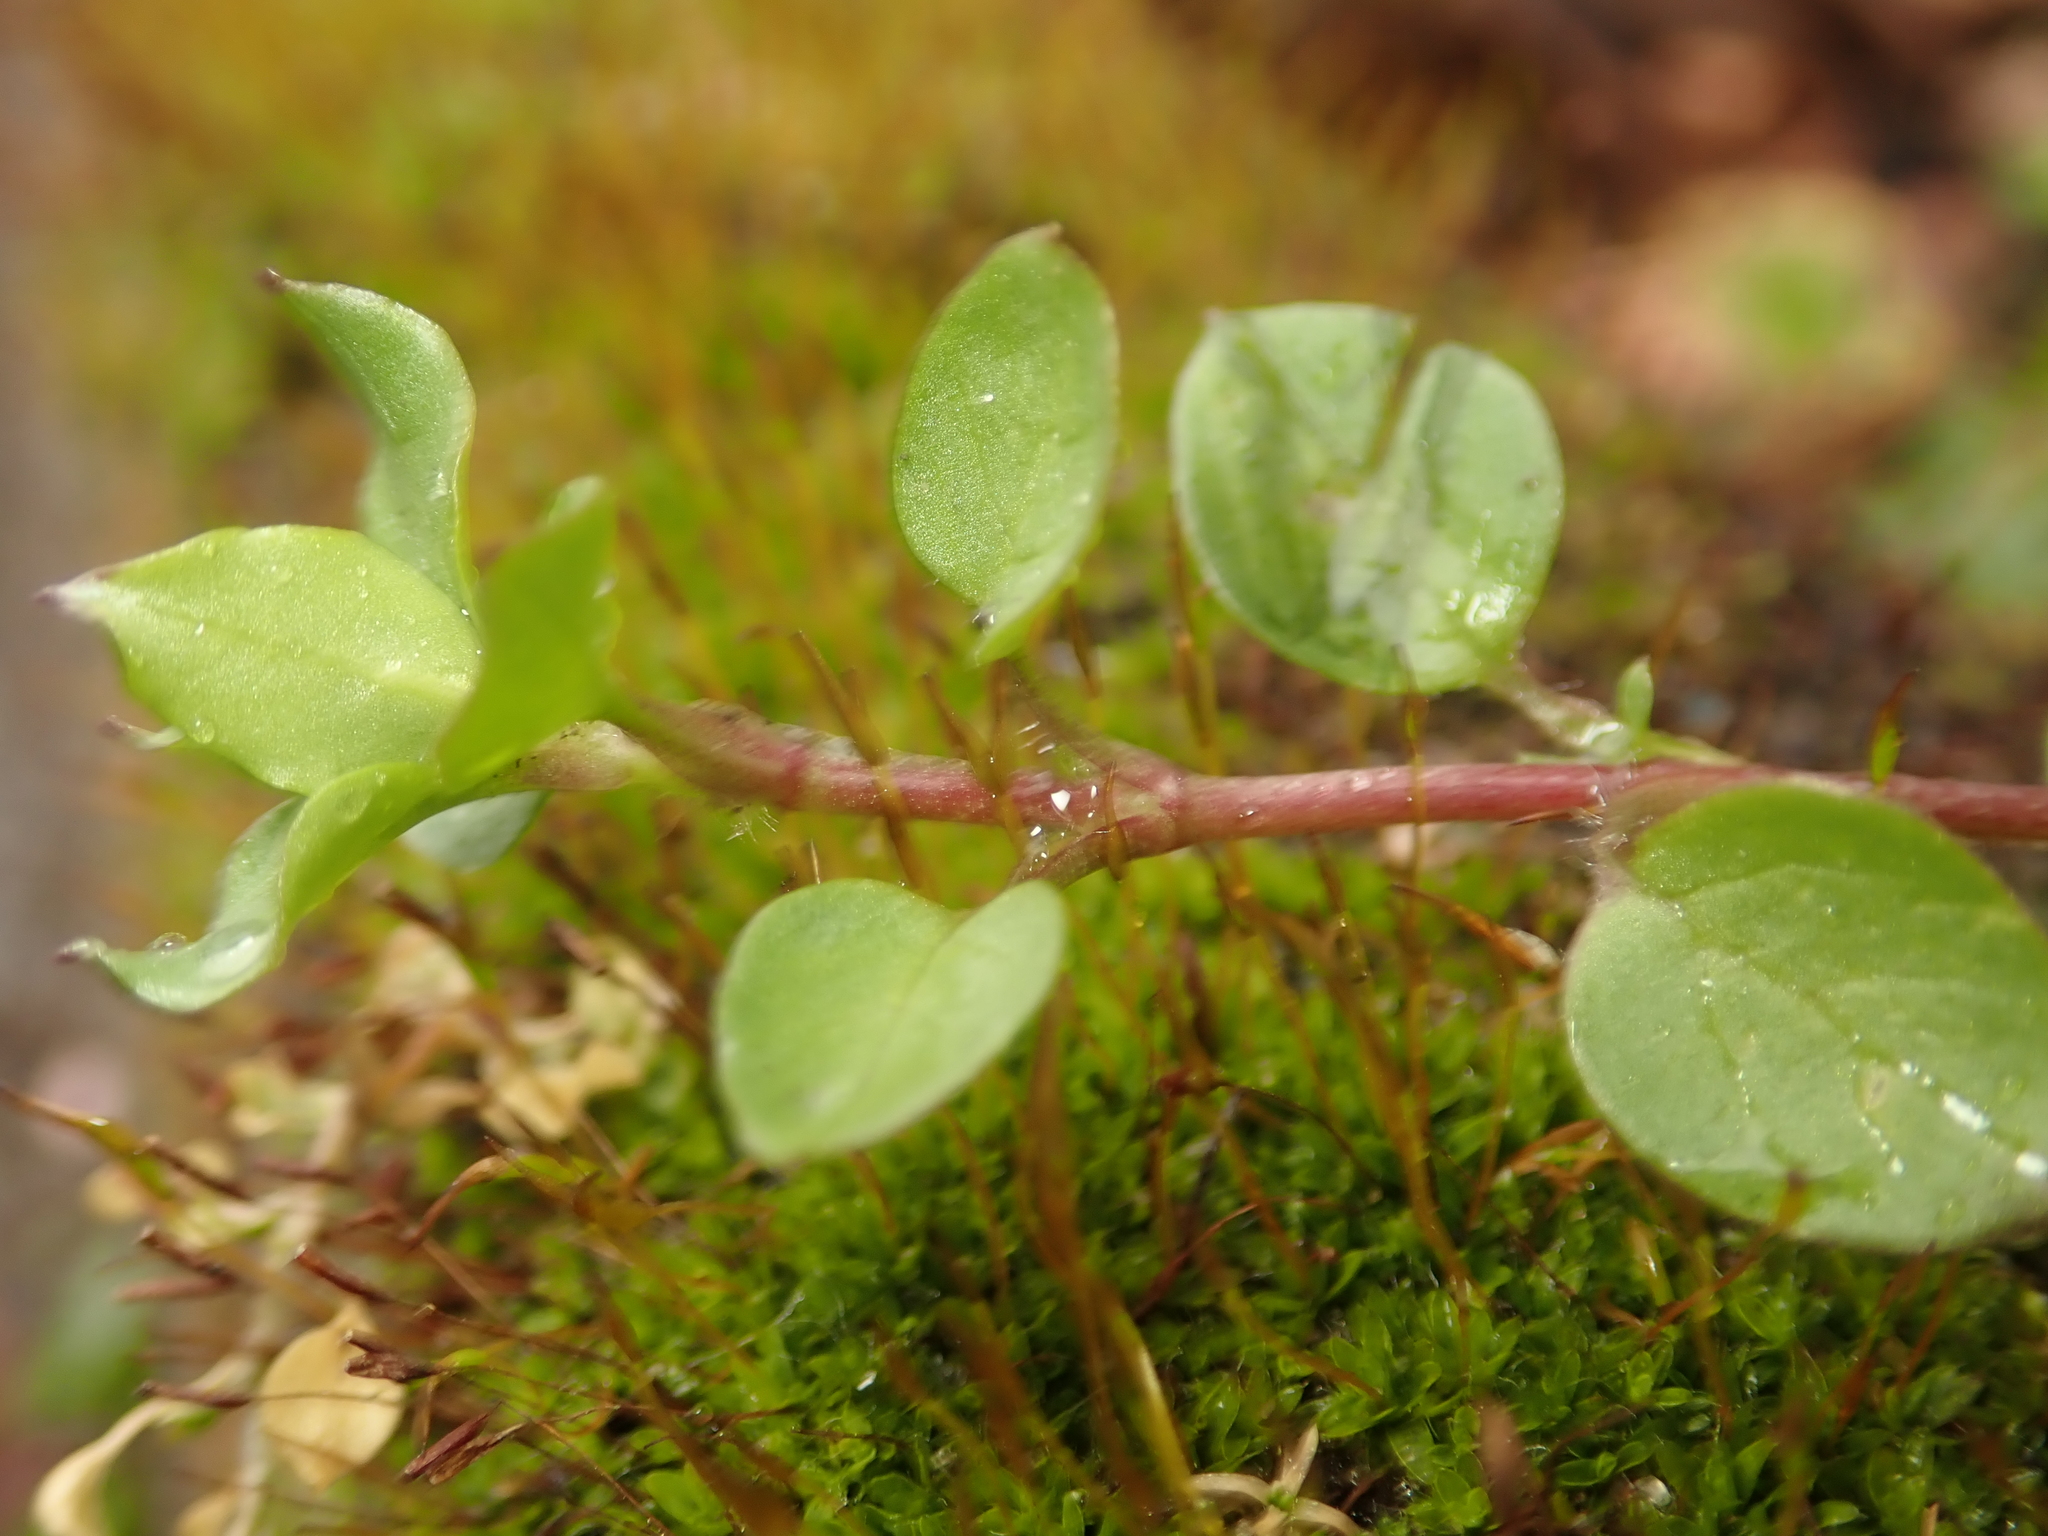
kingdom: Plantae
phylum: Tracheophyta
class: Magnoliopsida
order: Caryophyllales
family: Caryophyllaceae
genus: Stellaria
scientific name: Stellaria media
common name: Common chickweed
